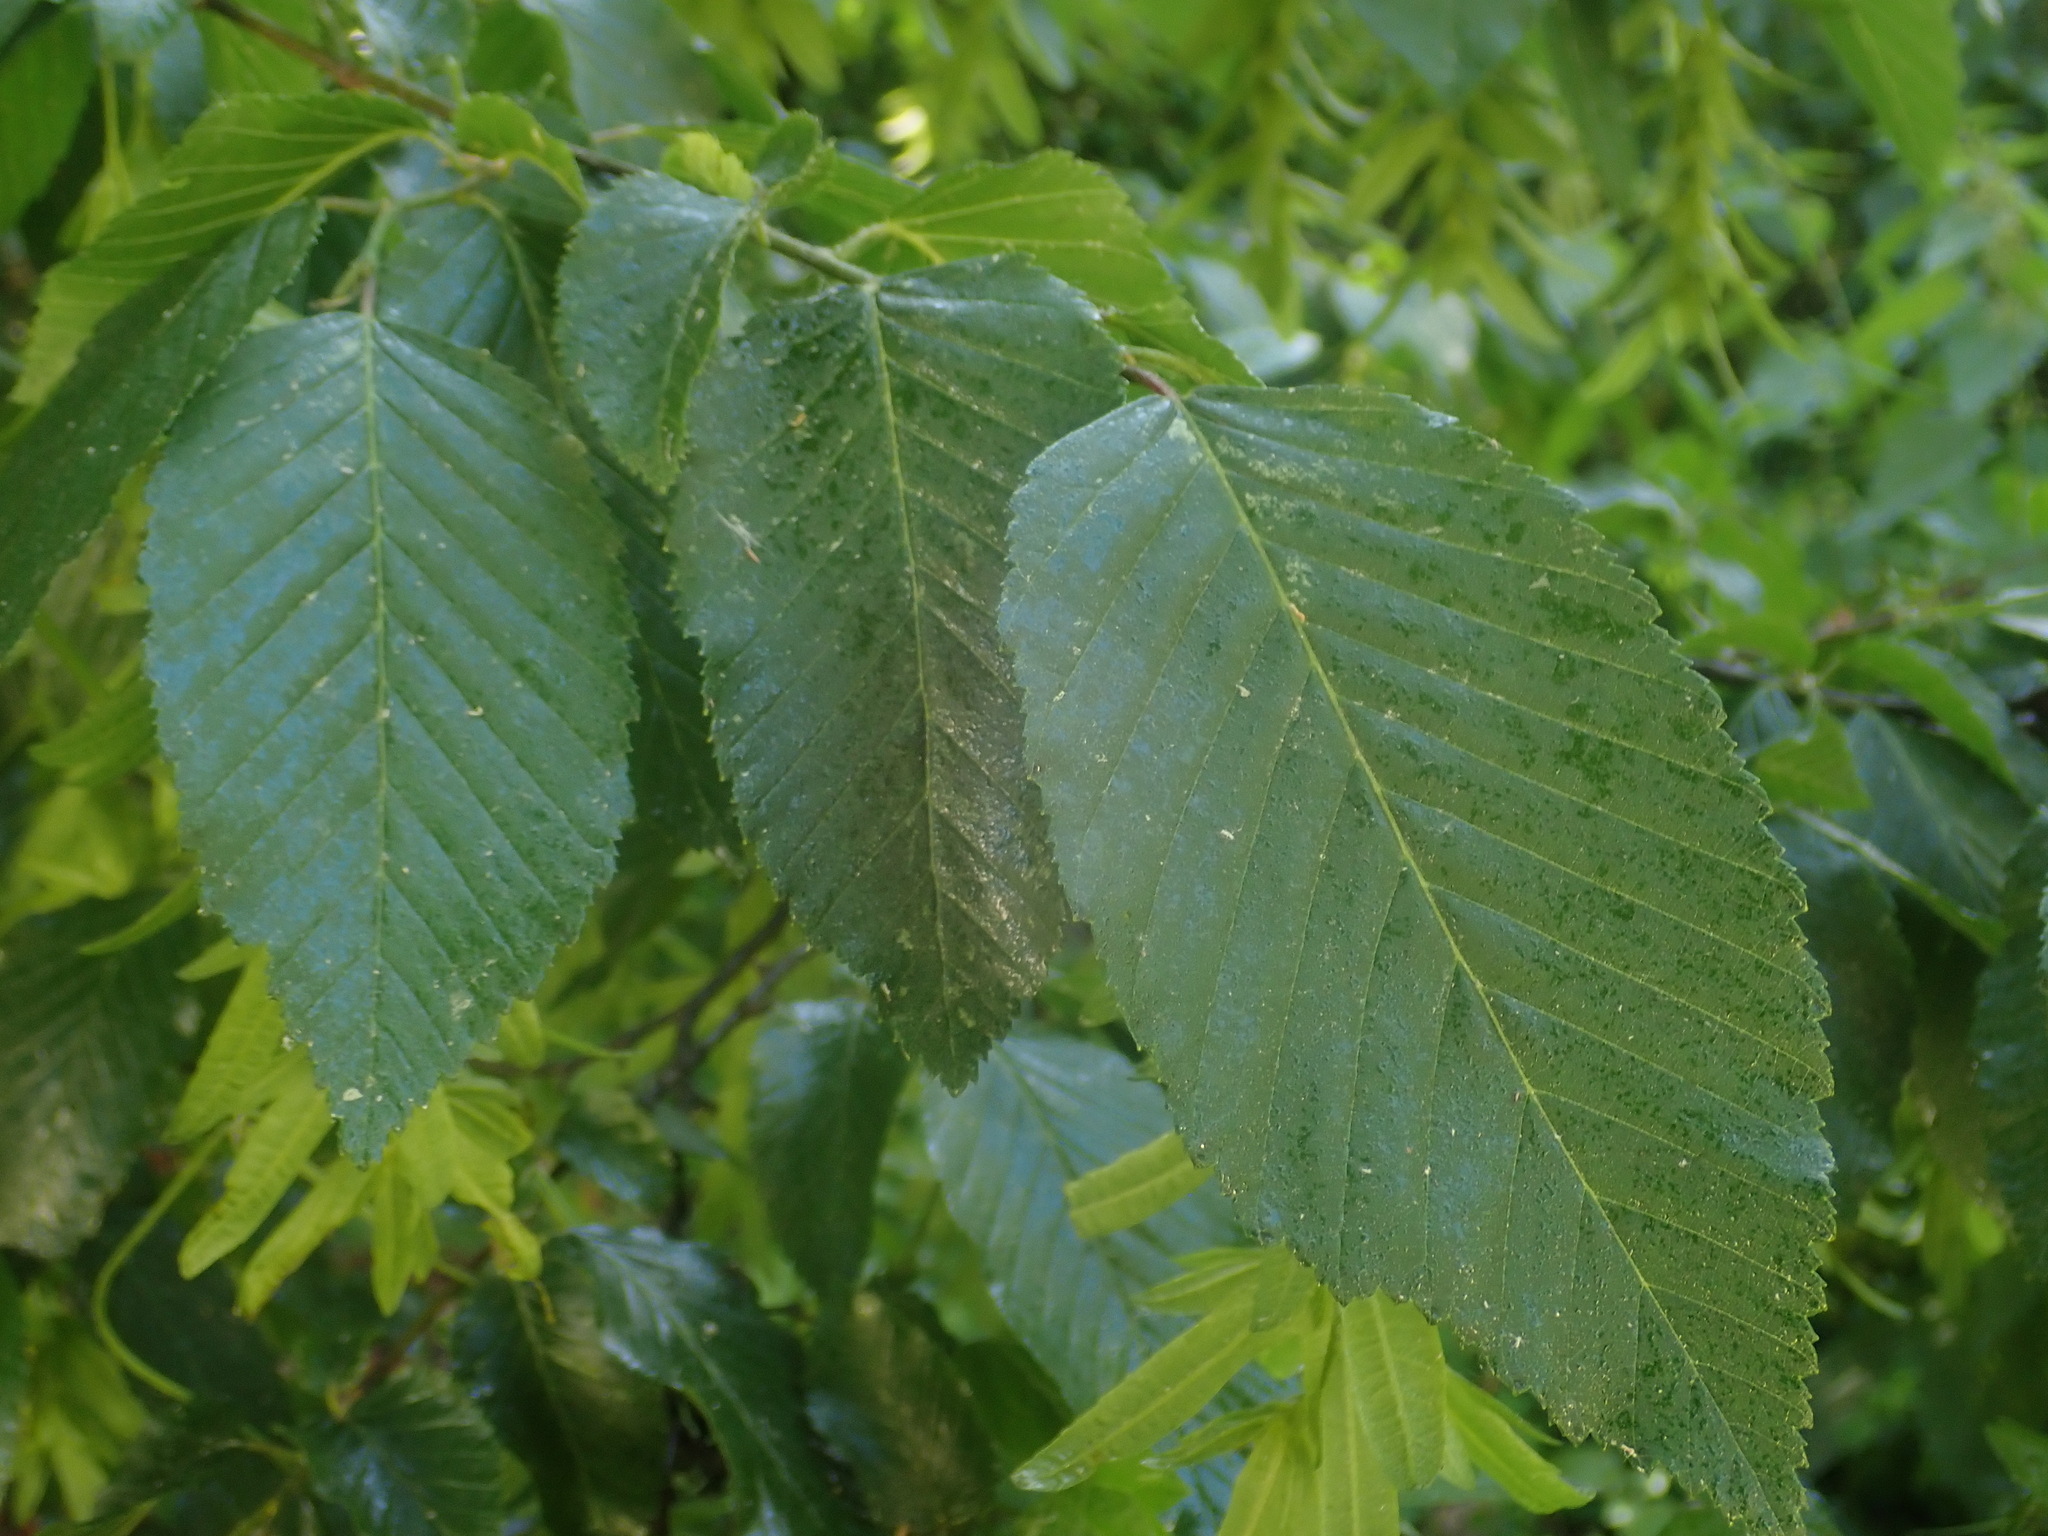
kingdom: Plantae
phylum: Tracheophyta
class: Magnoliopsida
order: Fagales
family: Betulaceae
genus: Carpinus
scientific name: Carpinus betulus
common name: Hornbeam
